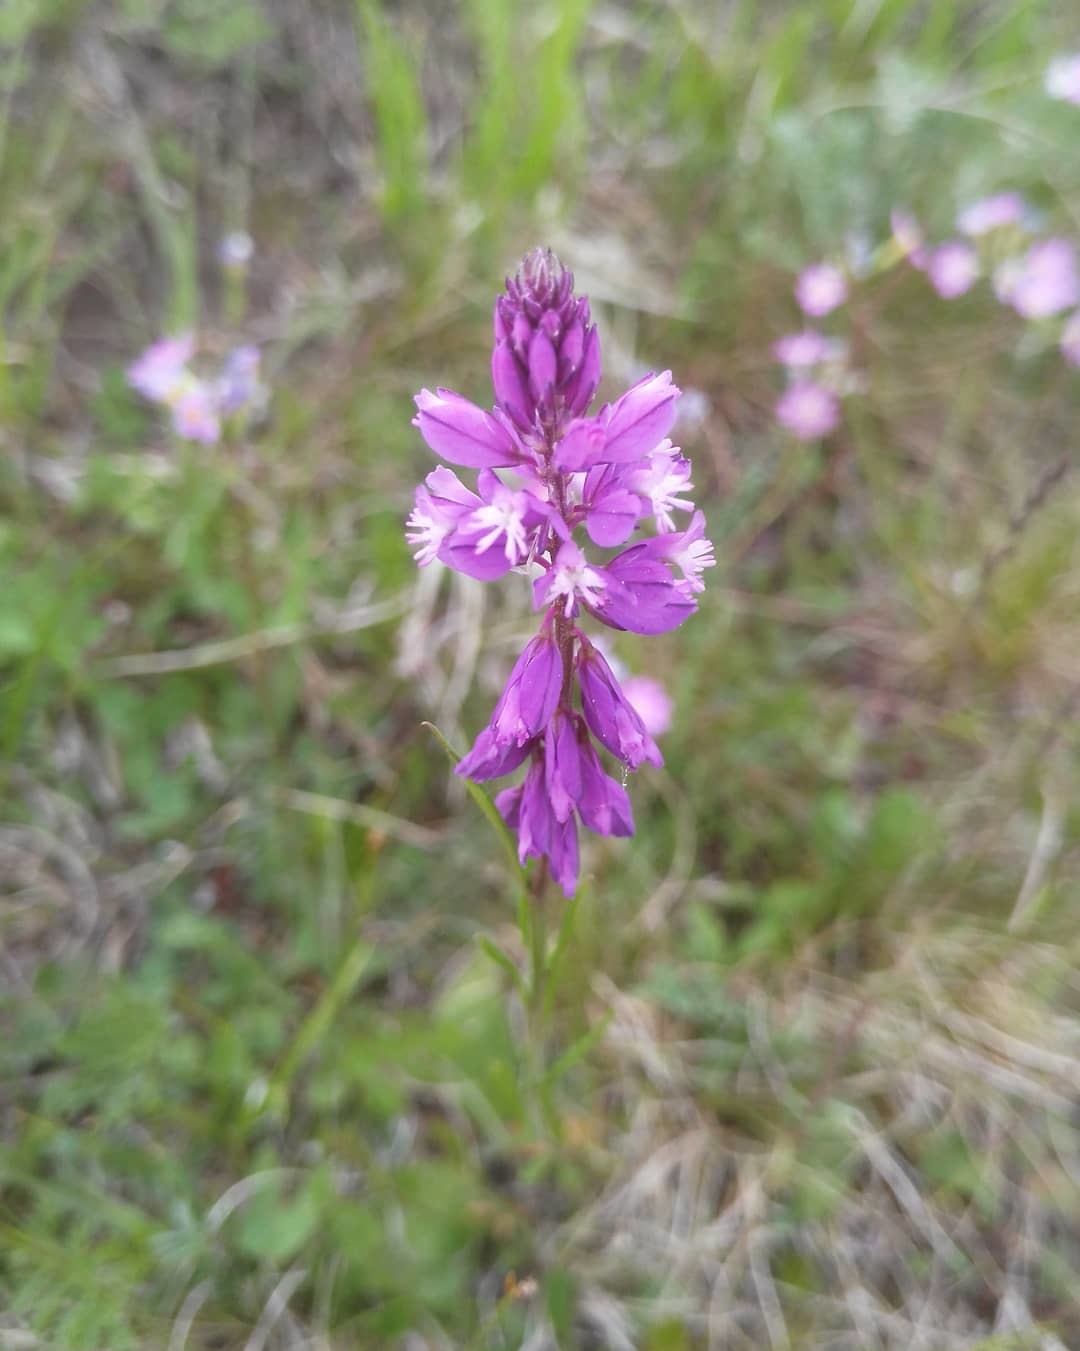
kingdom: Plantae
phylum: Tracheophyta
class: Magnoliopsida
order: Fabales
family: Polygalaceae
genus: Polygala
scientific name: Polygala comosa
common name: Tufted milkwort
